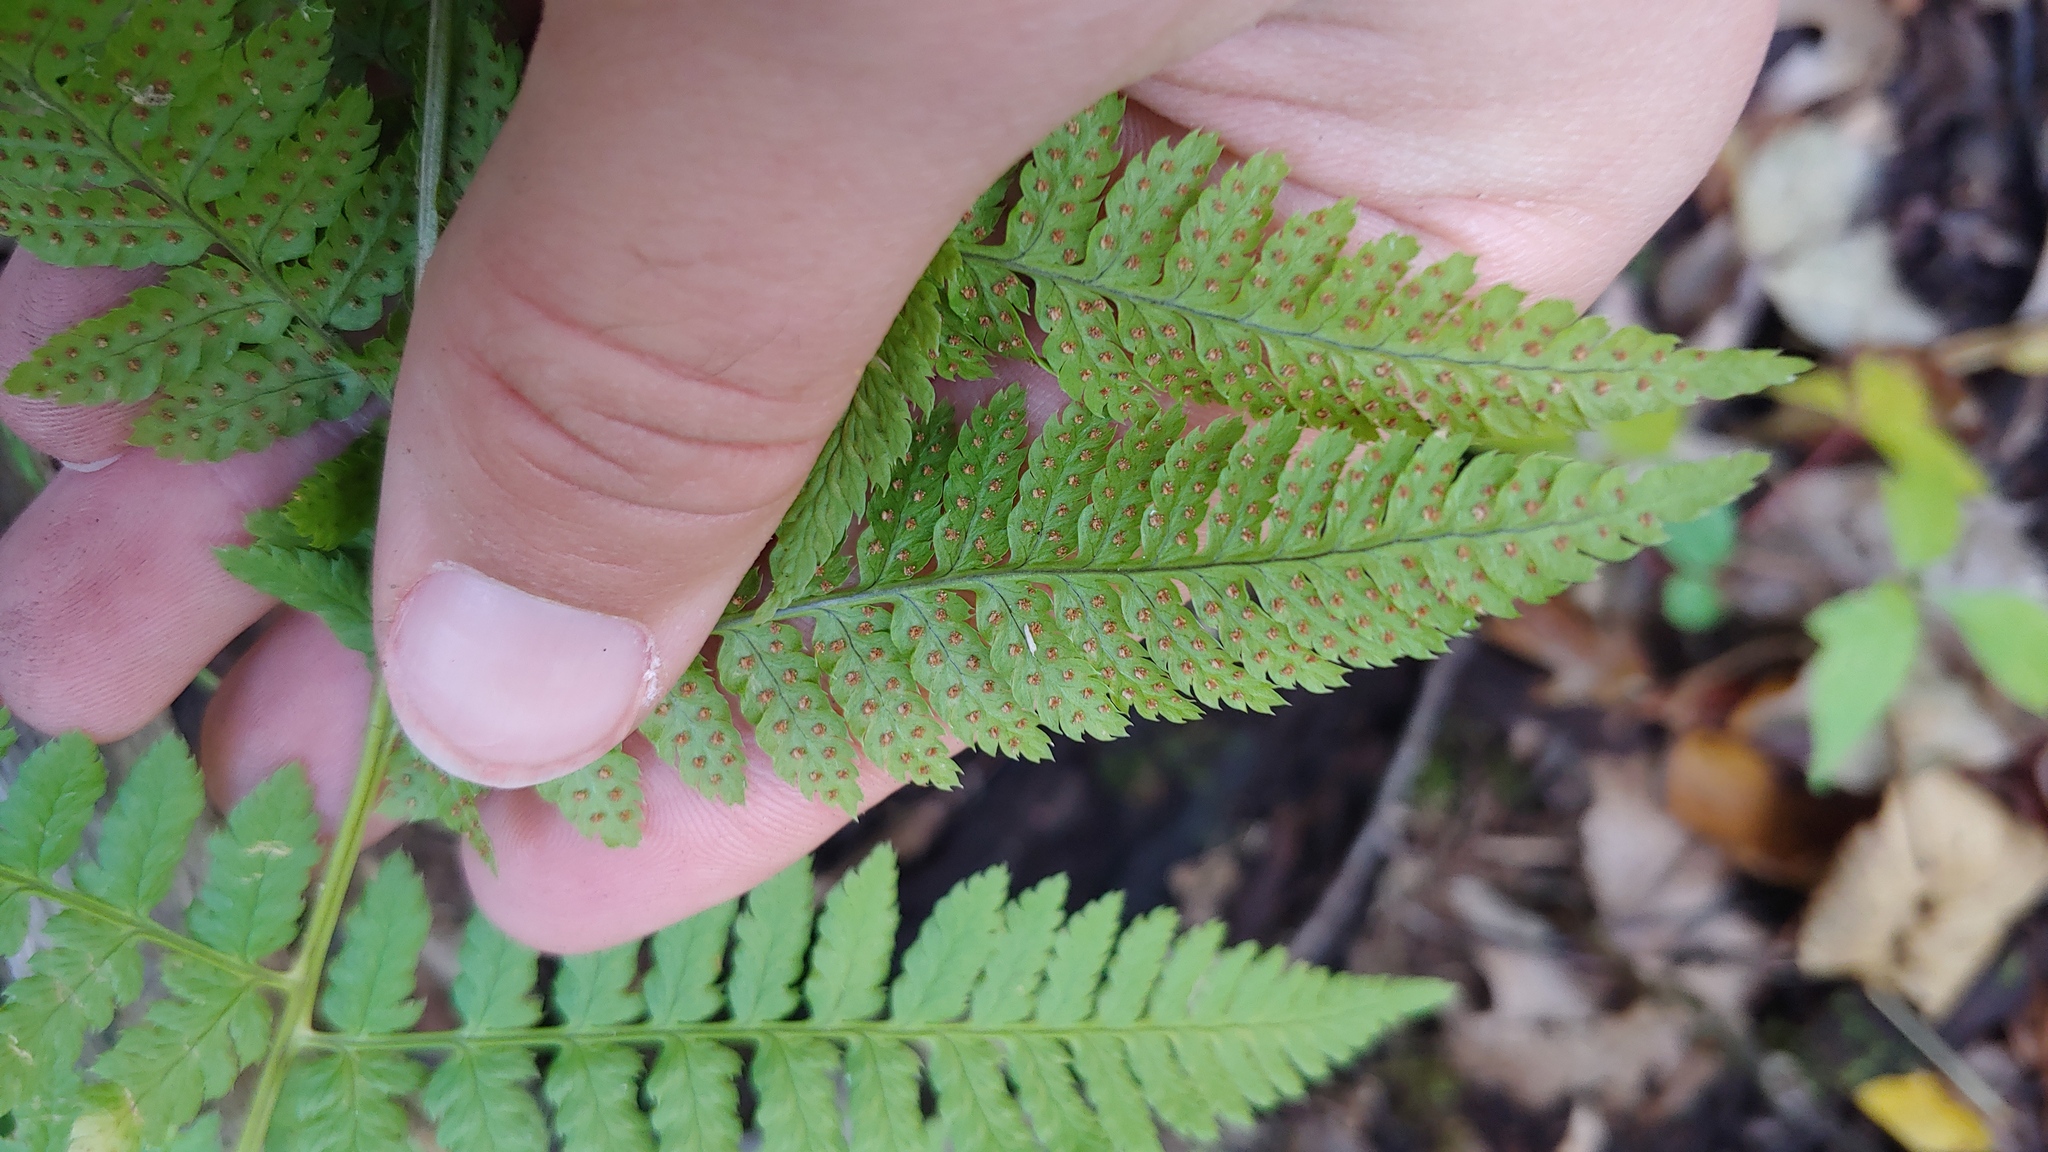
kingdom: Plantae
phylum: Tracheophyta
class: Polypodiopsida
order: Polypodiales
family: Dryopteridaceae
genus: Dryopteris
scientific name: Dryopteris carthusiana
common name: Narrow buckler-fern
